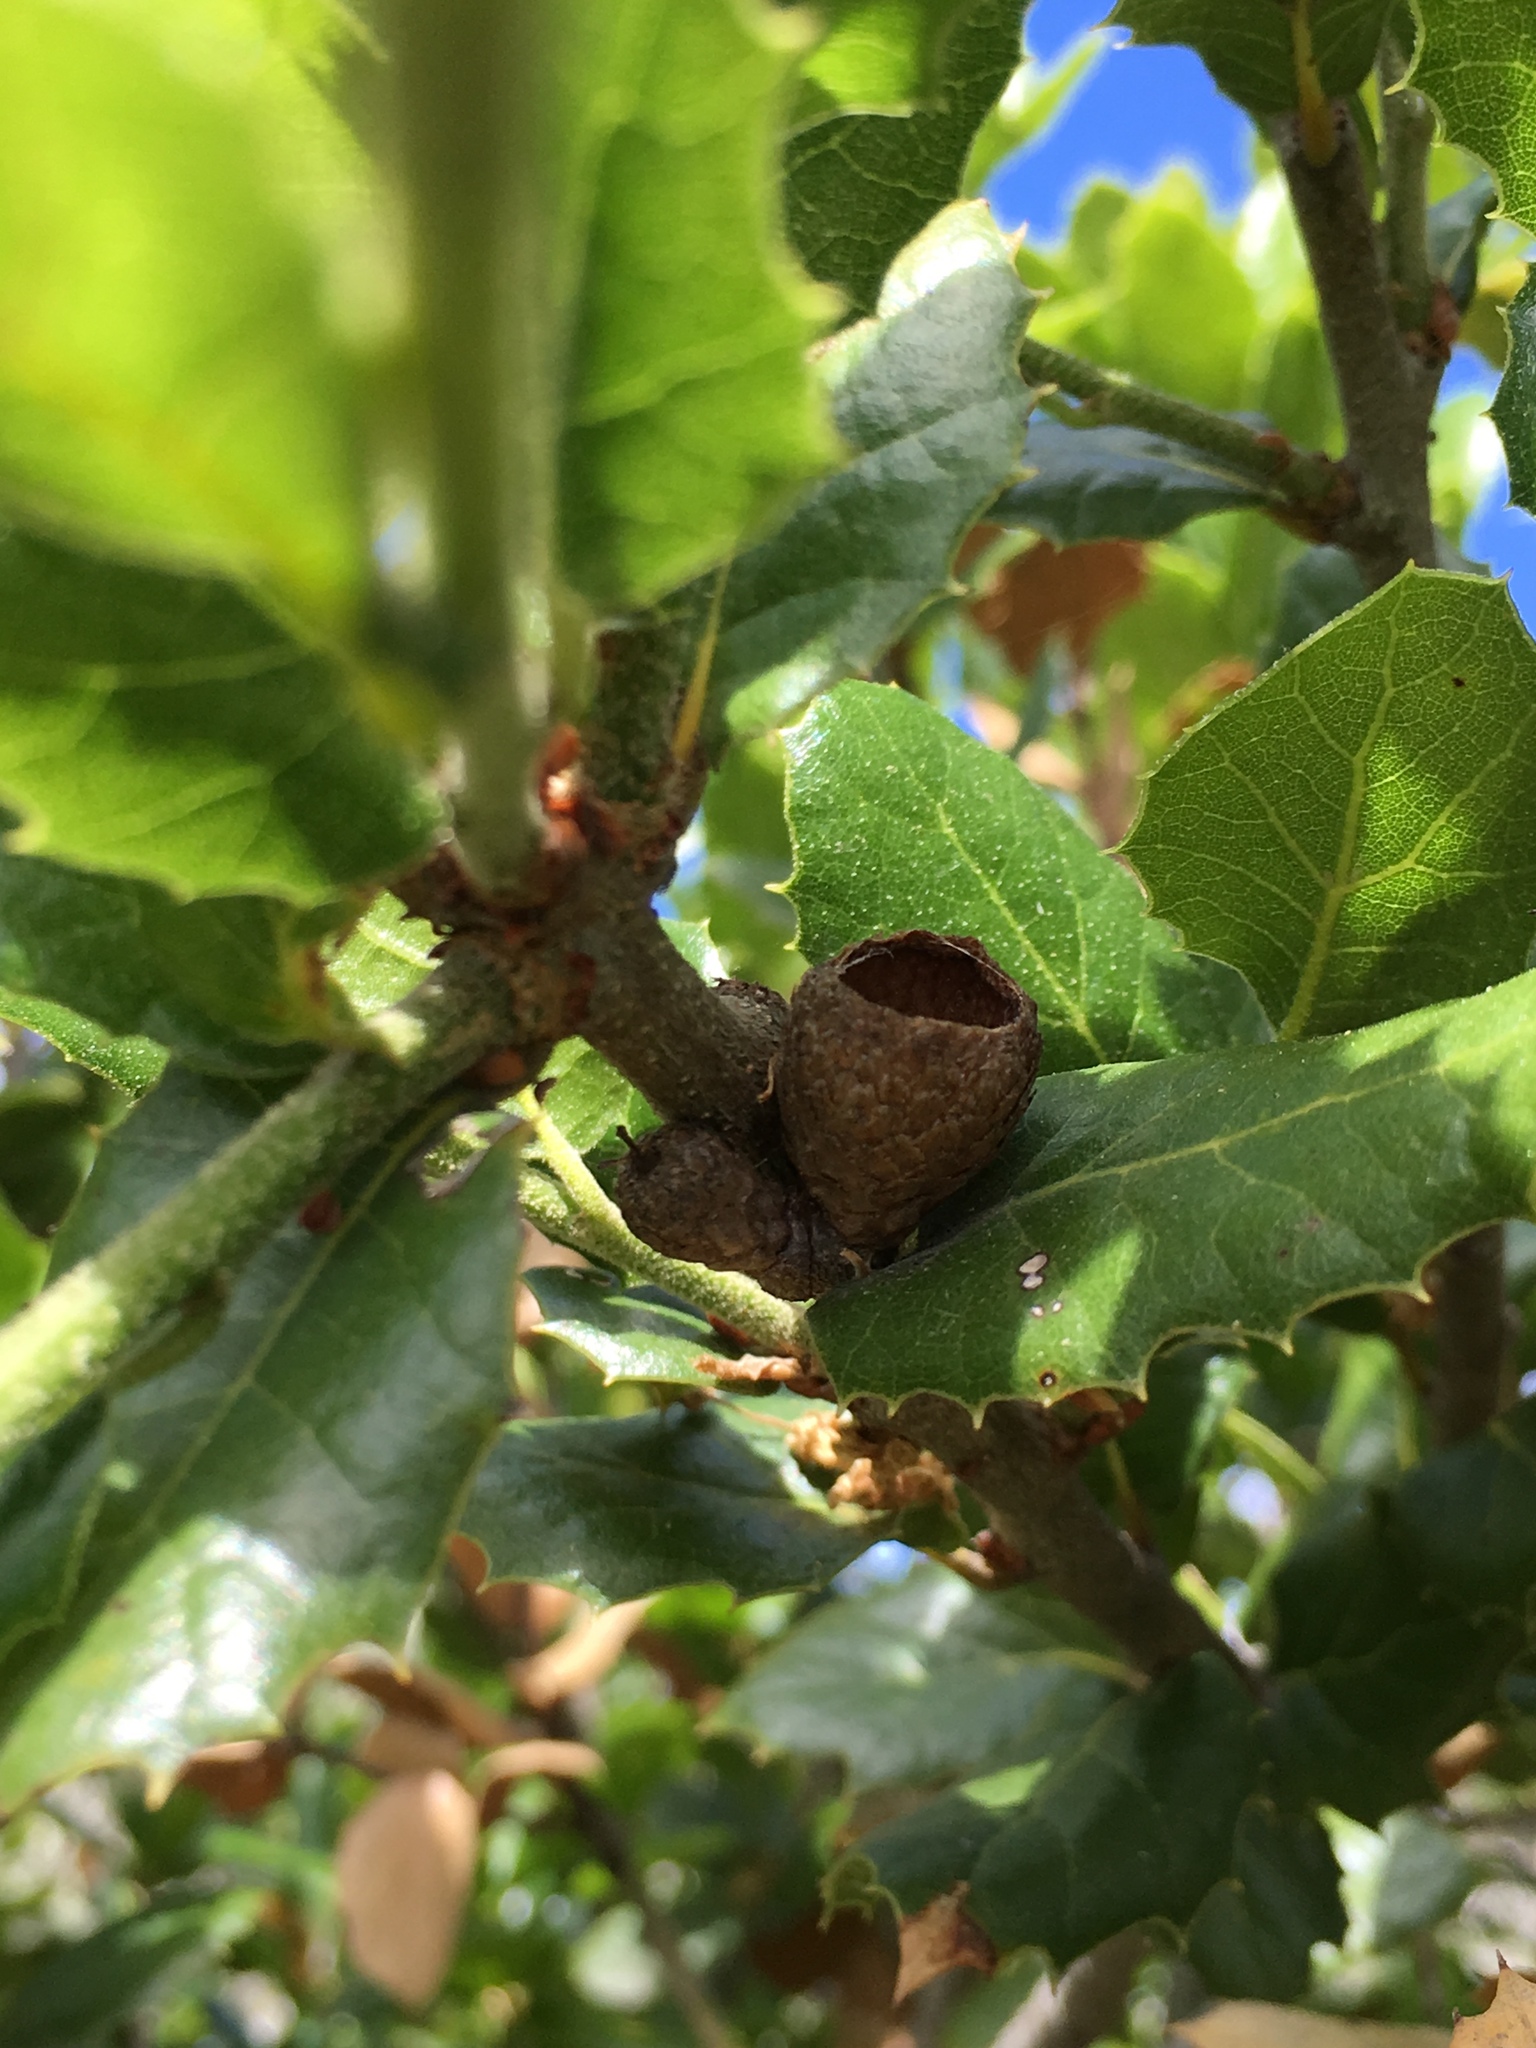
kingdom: Plantae
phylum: Tracheophyta
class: Magnoliopsida
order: Fagales
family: Fagaceae
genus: Quercus
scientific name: Quercus agrifolia
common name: California live oak
